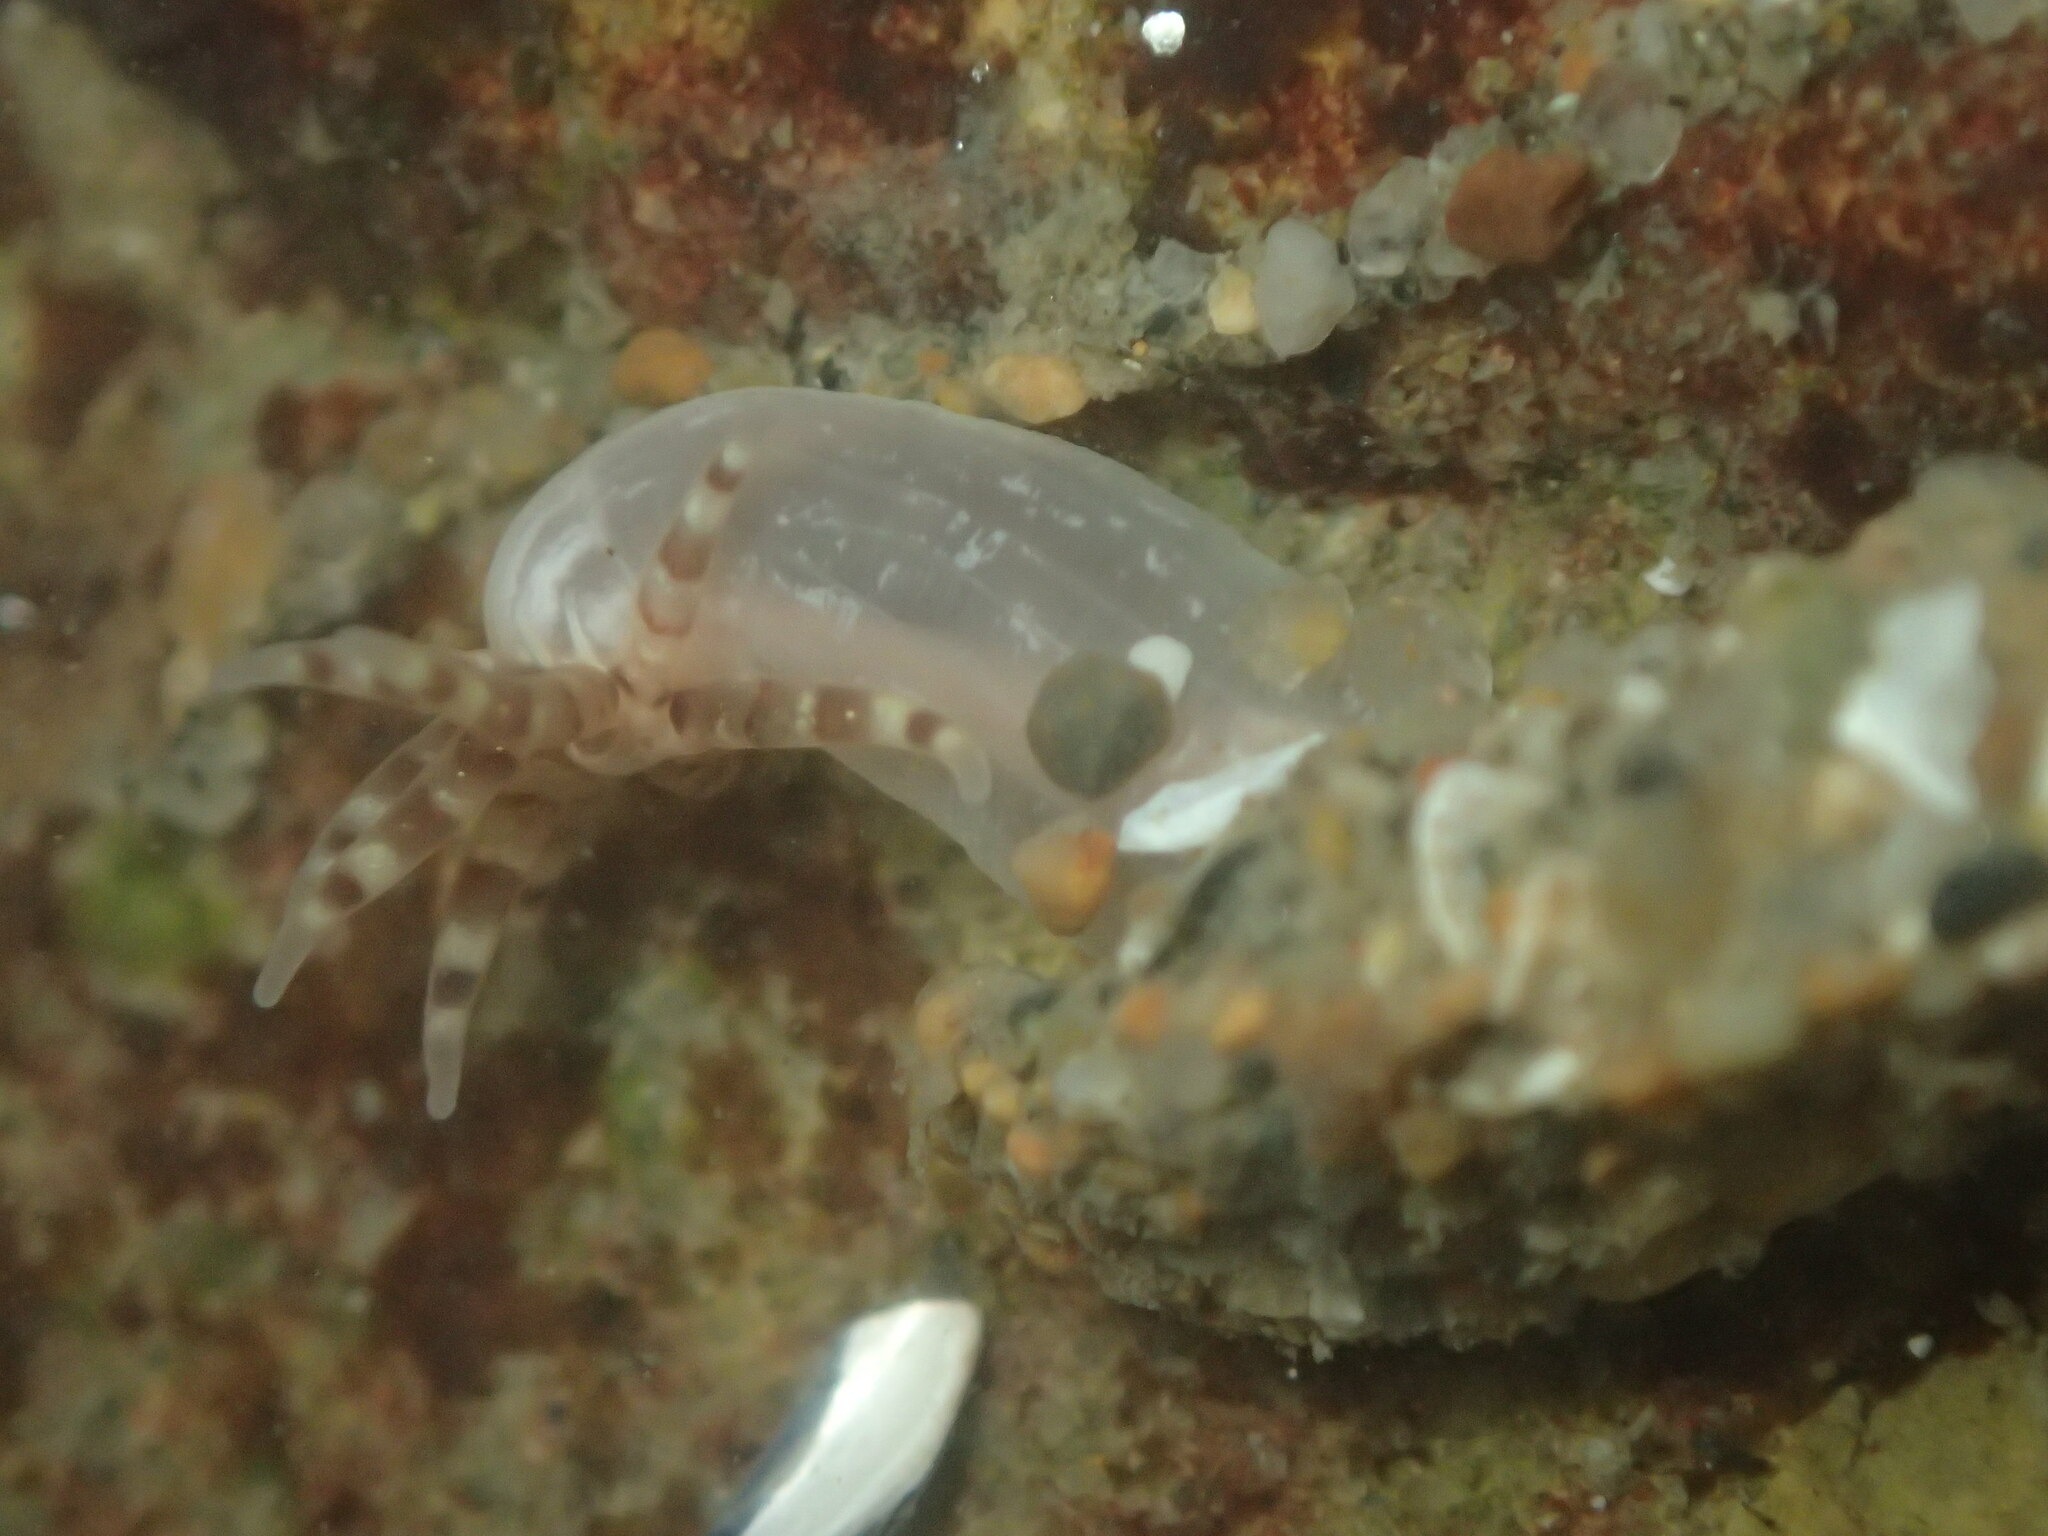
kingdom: Animalia
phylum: Cnidaria
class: Anthozoa
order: Actiniaria
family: Halcampidae
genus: Halcampa
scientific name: Halcampa decemtentaculata
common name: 10-tentacle burrowing anemone
